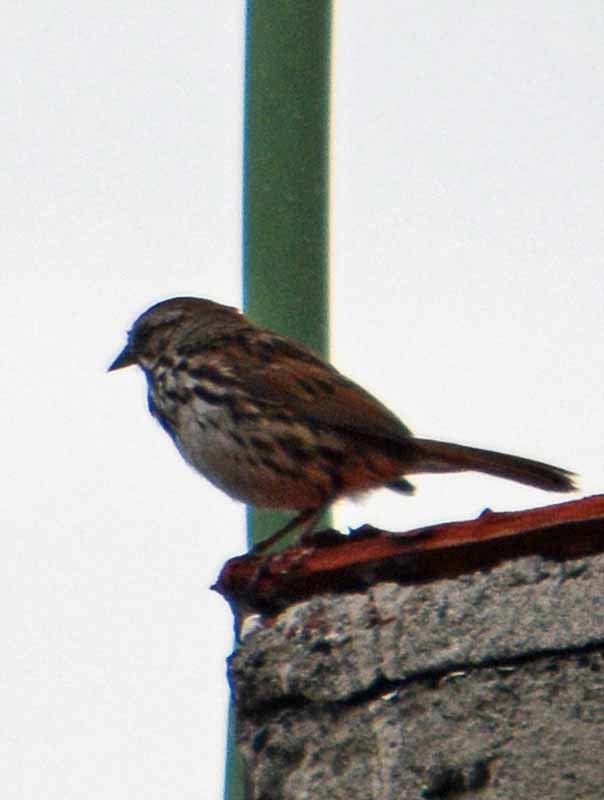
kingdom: Animalia
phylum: Chordata
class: Aves
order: Passeriformes
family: Passerellidae
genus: Melospiza
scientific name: Melospiza melodia
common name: Song sparrow
